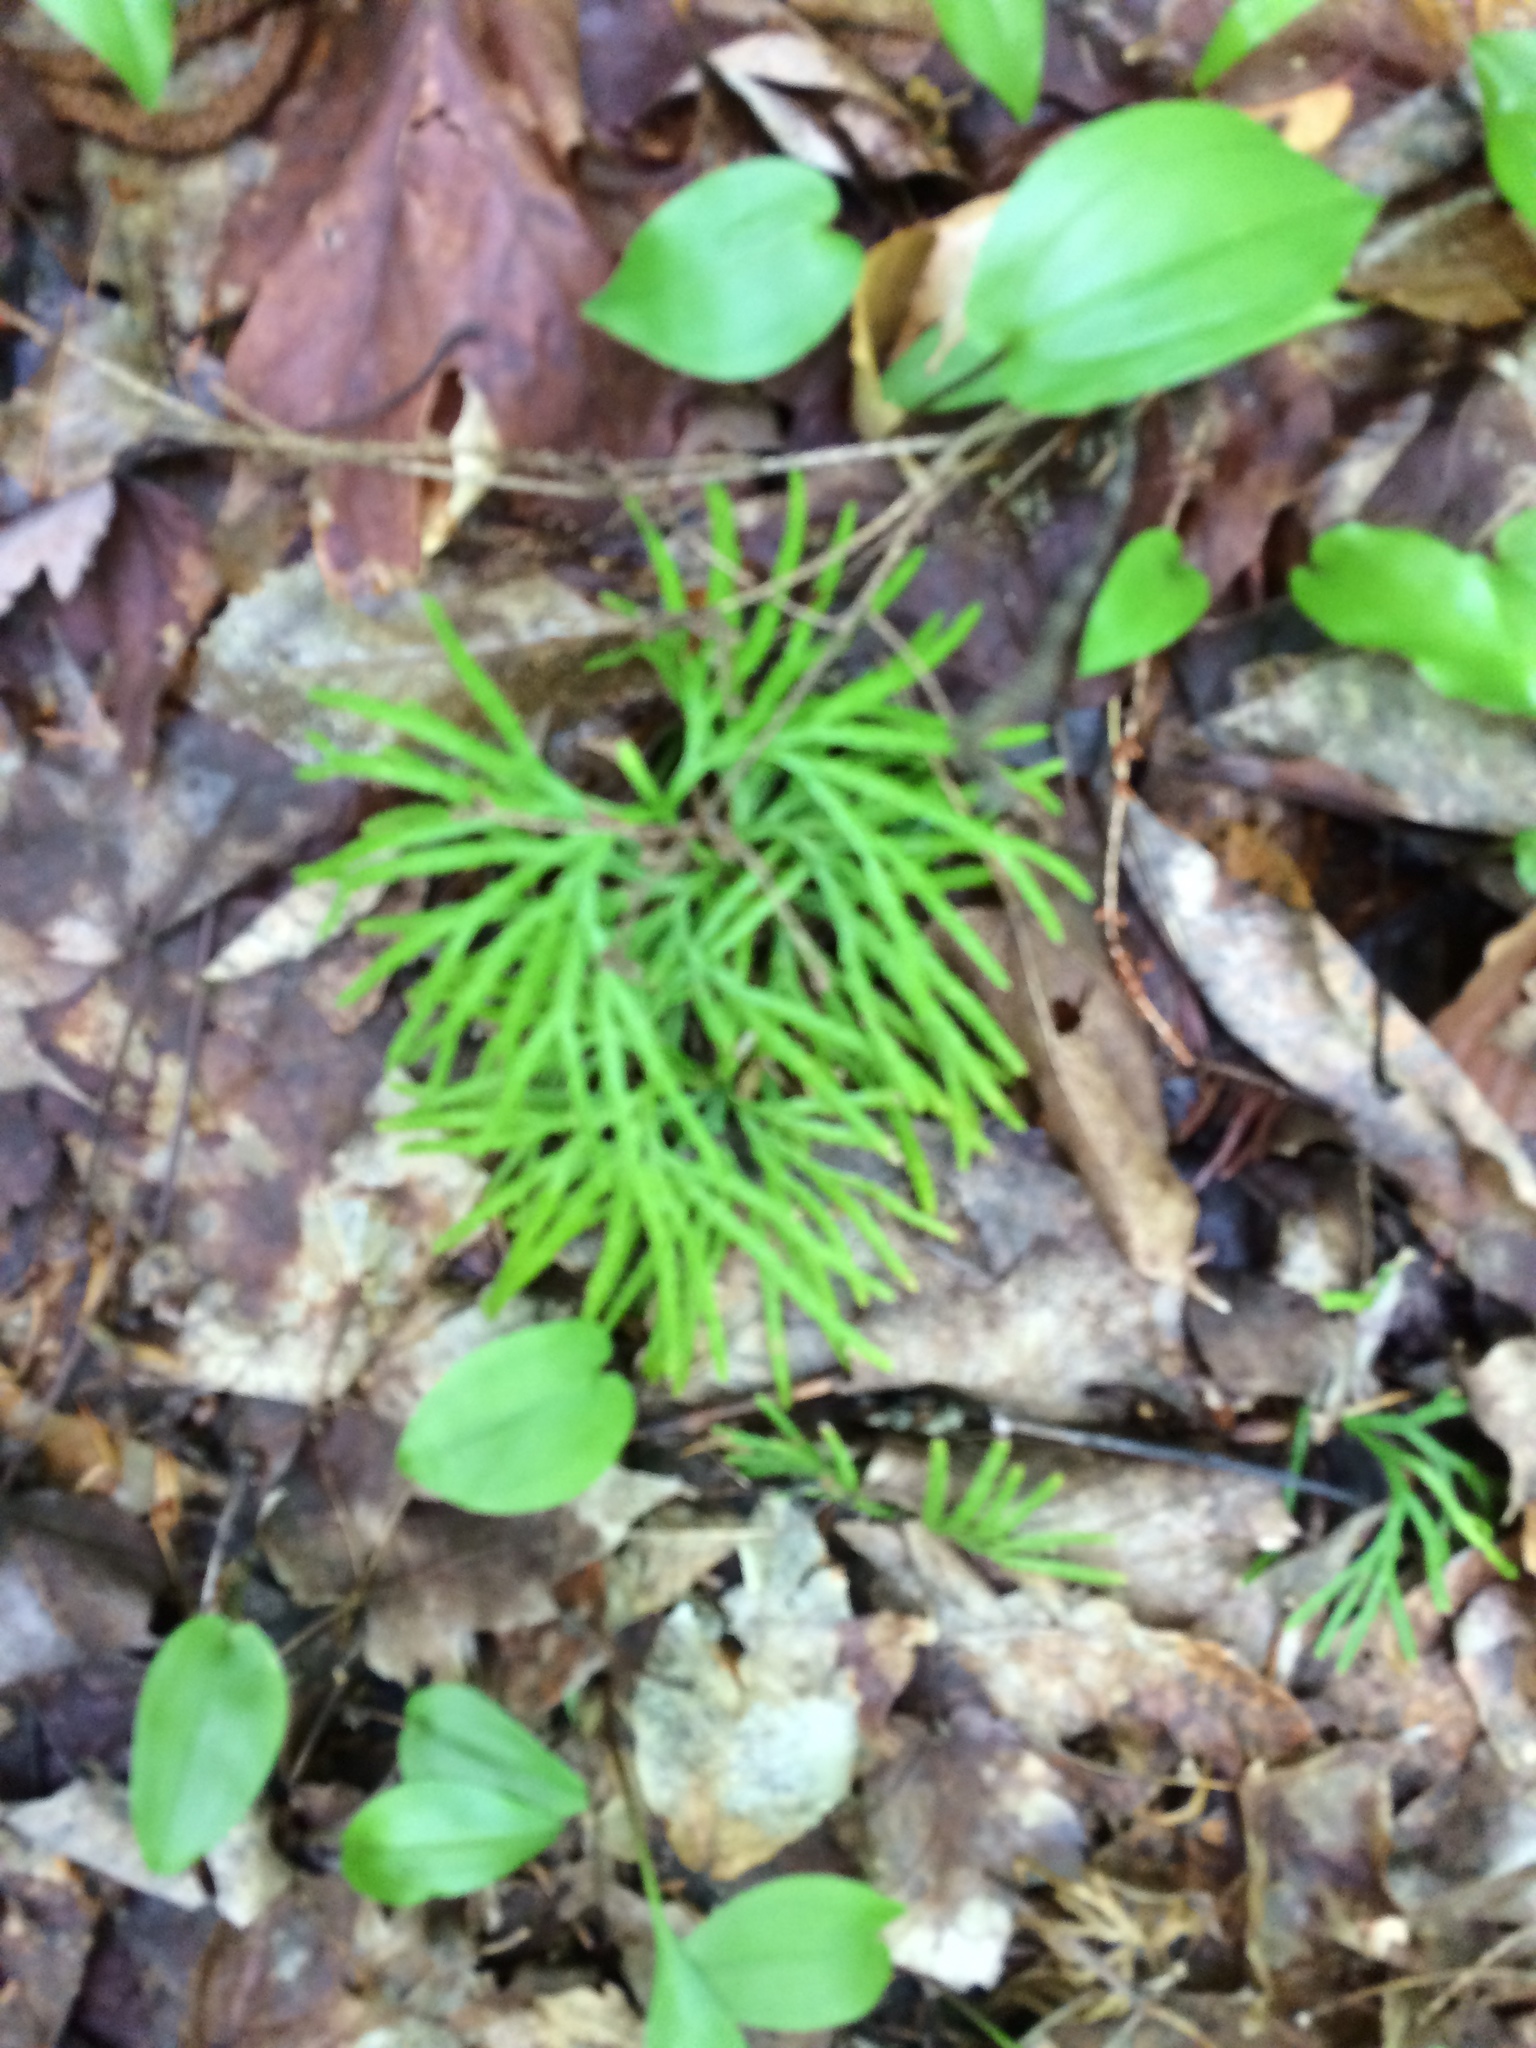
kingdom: Plantae
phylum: Tracheophyta
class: Lycopodiopsida
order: Lycopodiales
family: Lycopodiaceae
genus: Diphasiastrum
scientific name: Diphasiastrum digitatum
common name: Southern running-pine
